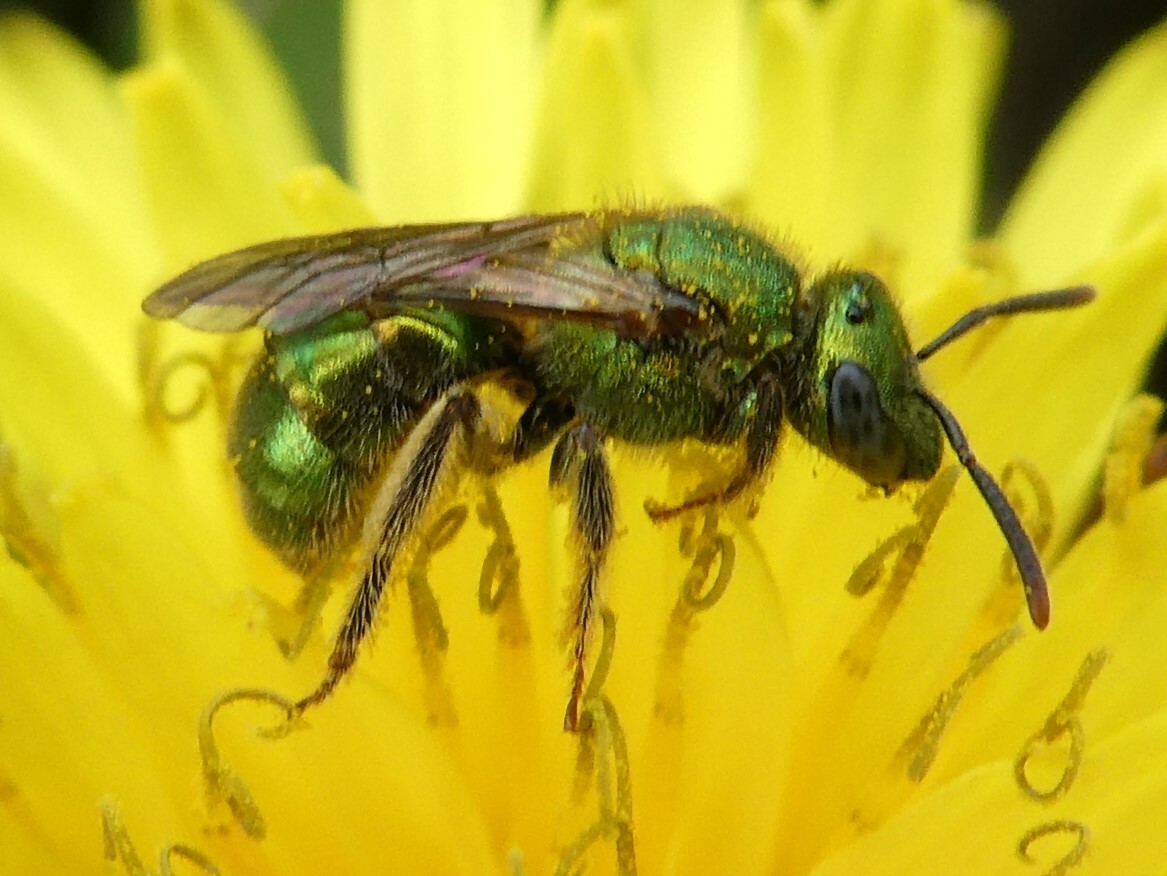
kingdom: Animalia
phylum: Arthropoda
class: Insecta
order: Hymenoptera
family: Halictidae
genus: Augochlorella
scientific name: Augochlorella aurata
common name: Golden sweat bee
